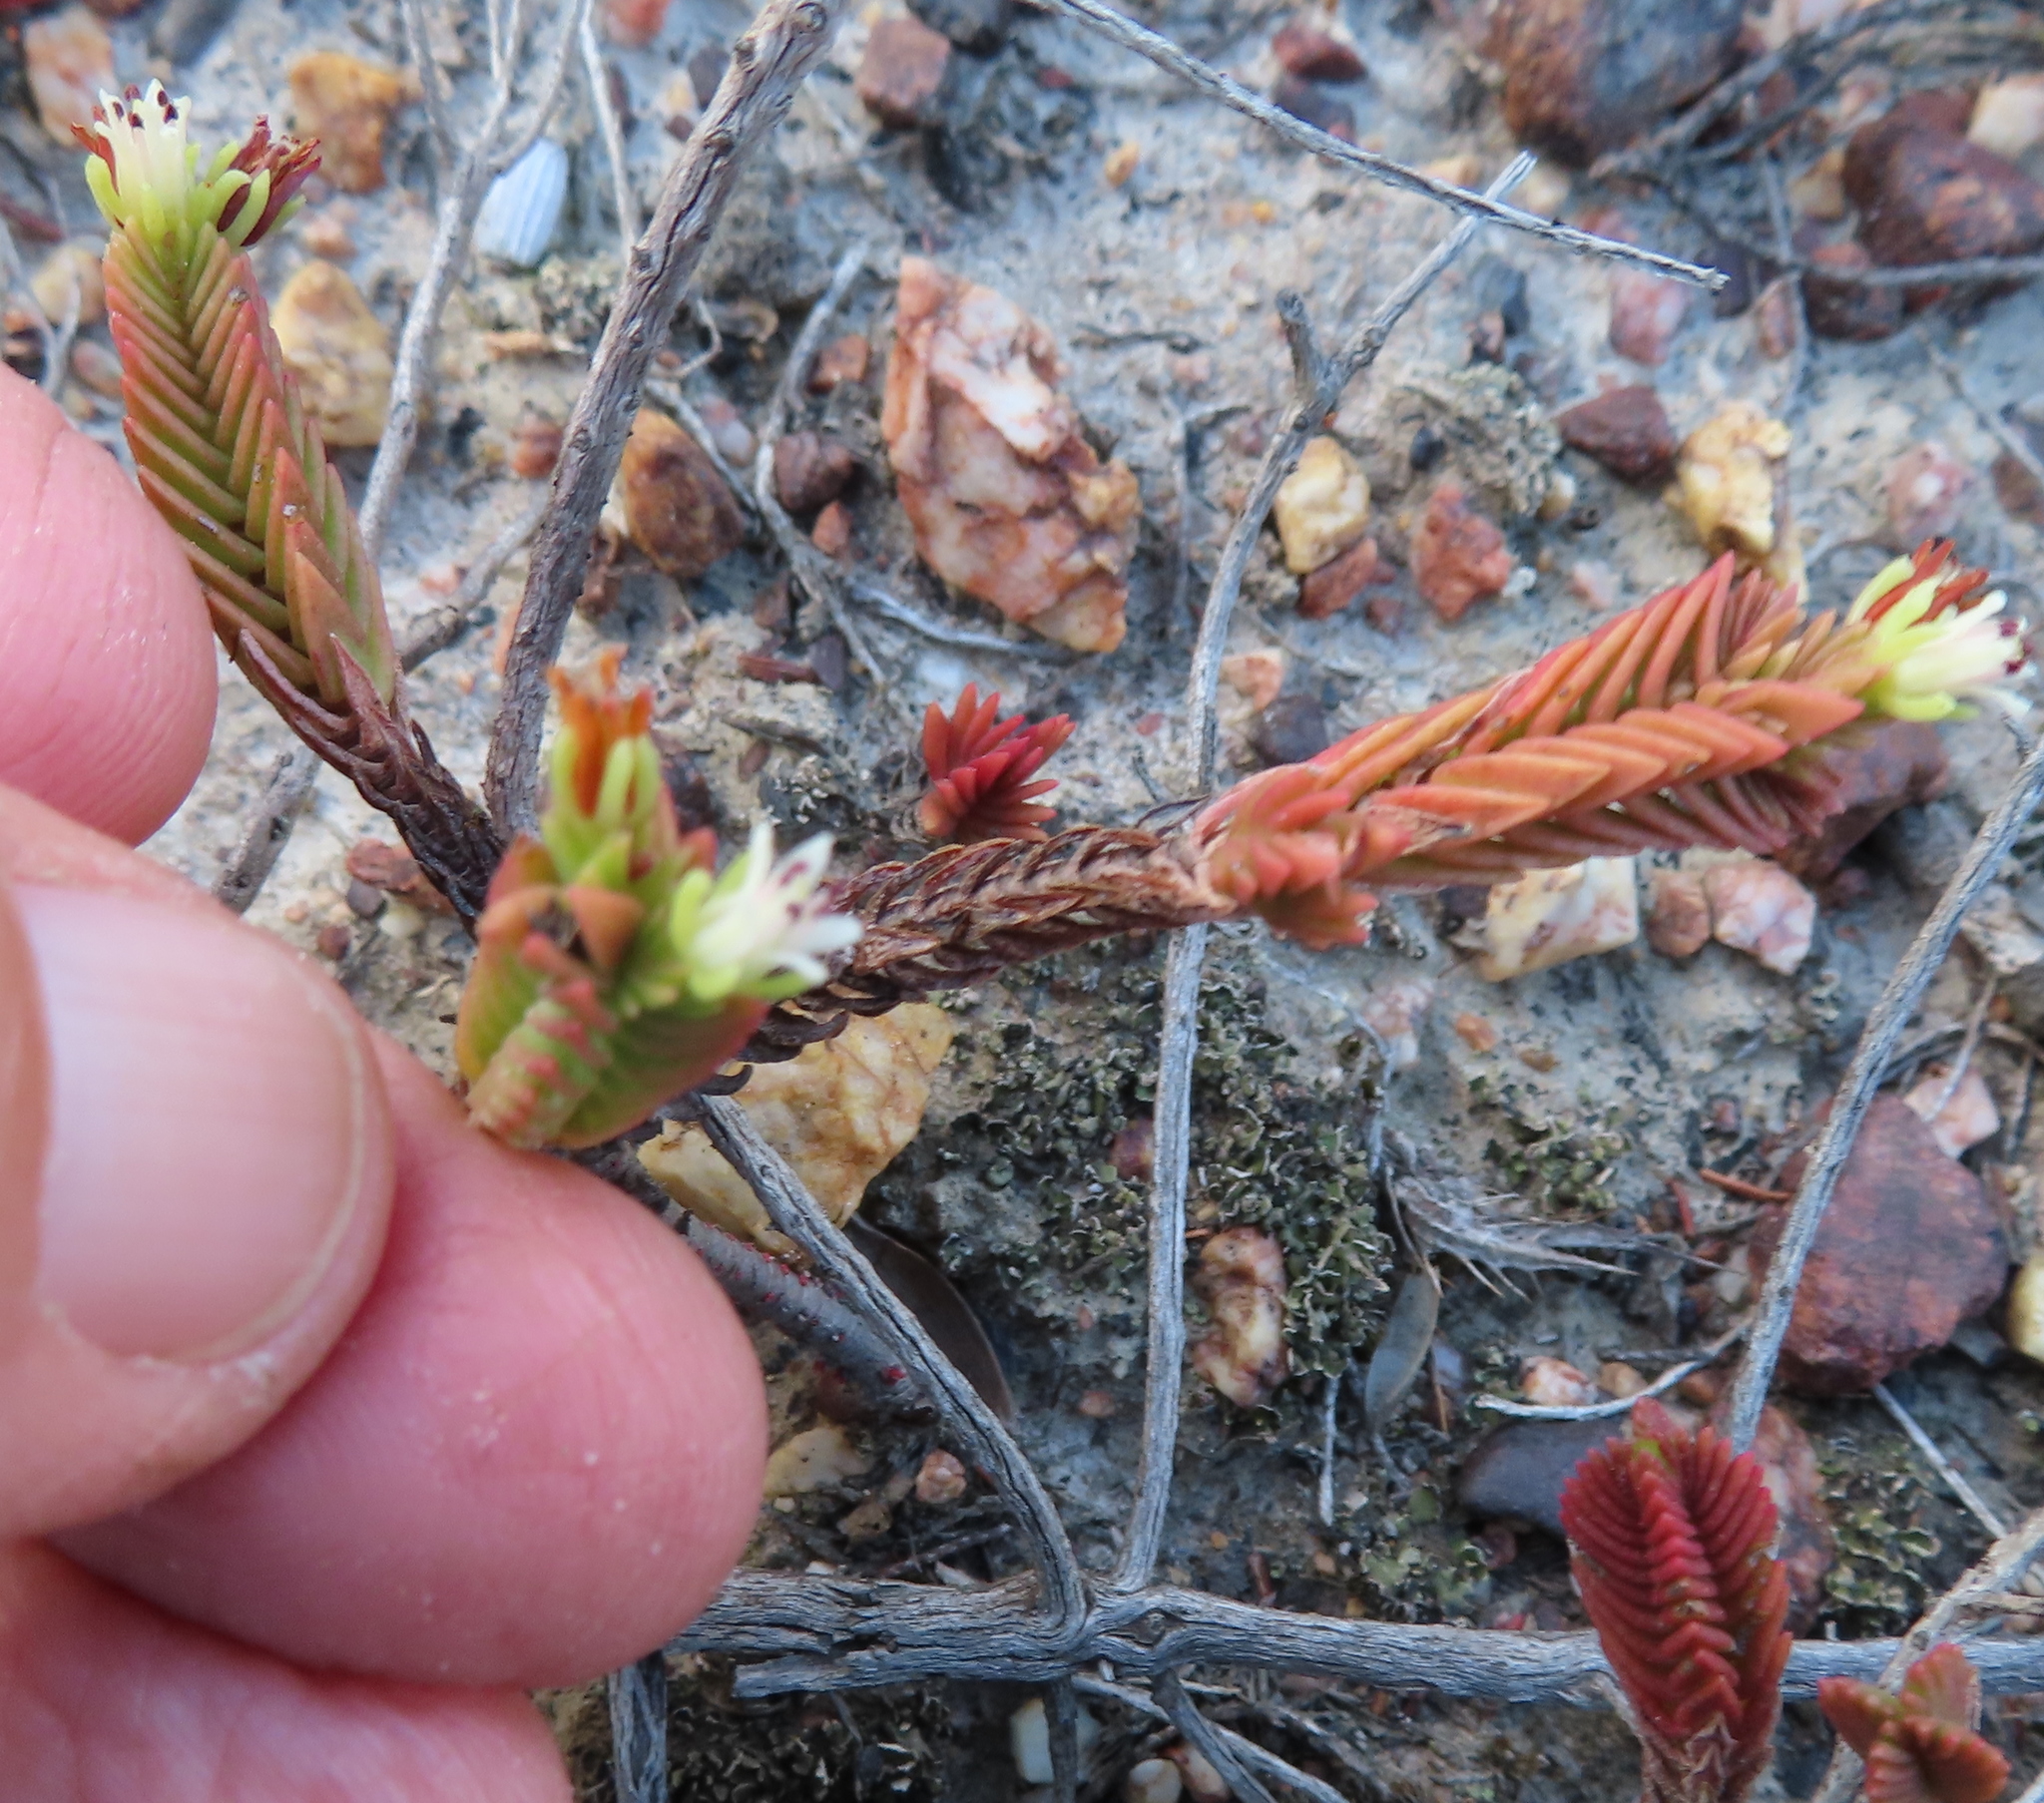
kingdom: Plantae
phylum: Tracheophyta
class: Magnoliopsida
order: Saxifragales
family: Crassulaceae
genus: Crassula
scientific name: Crassula ericoides
